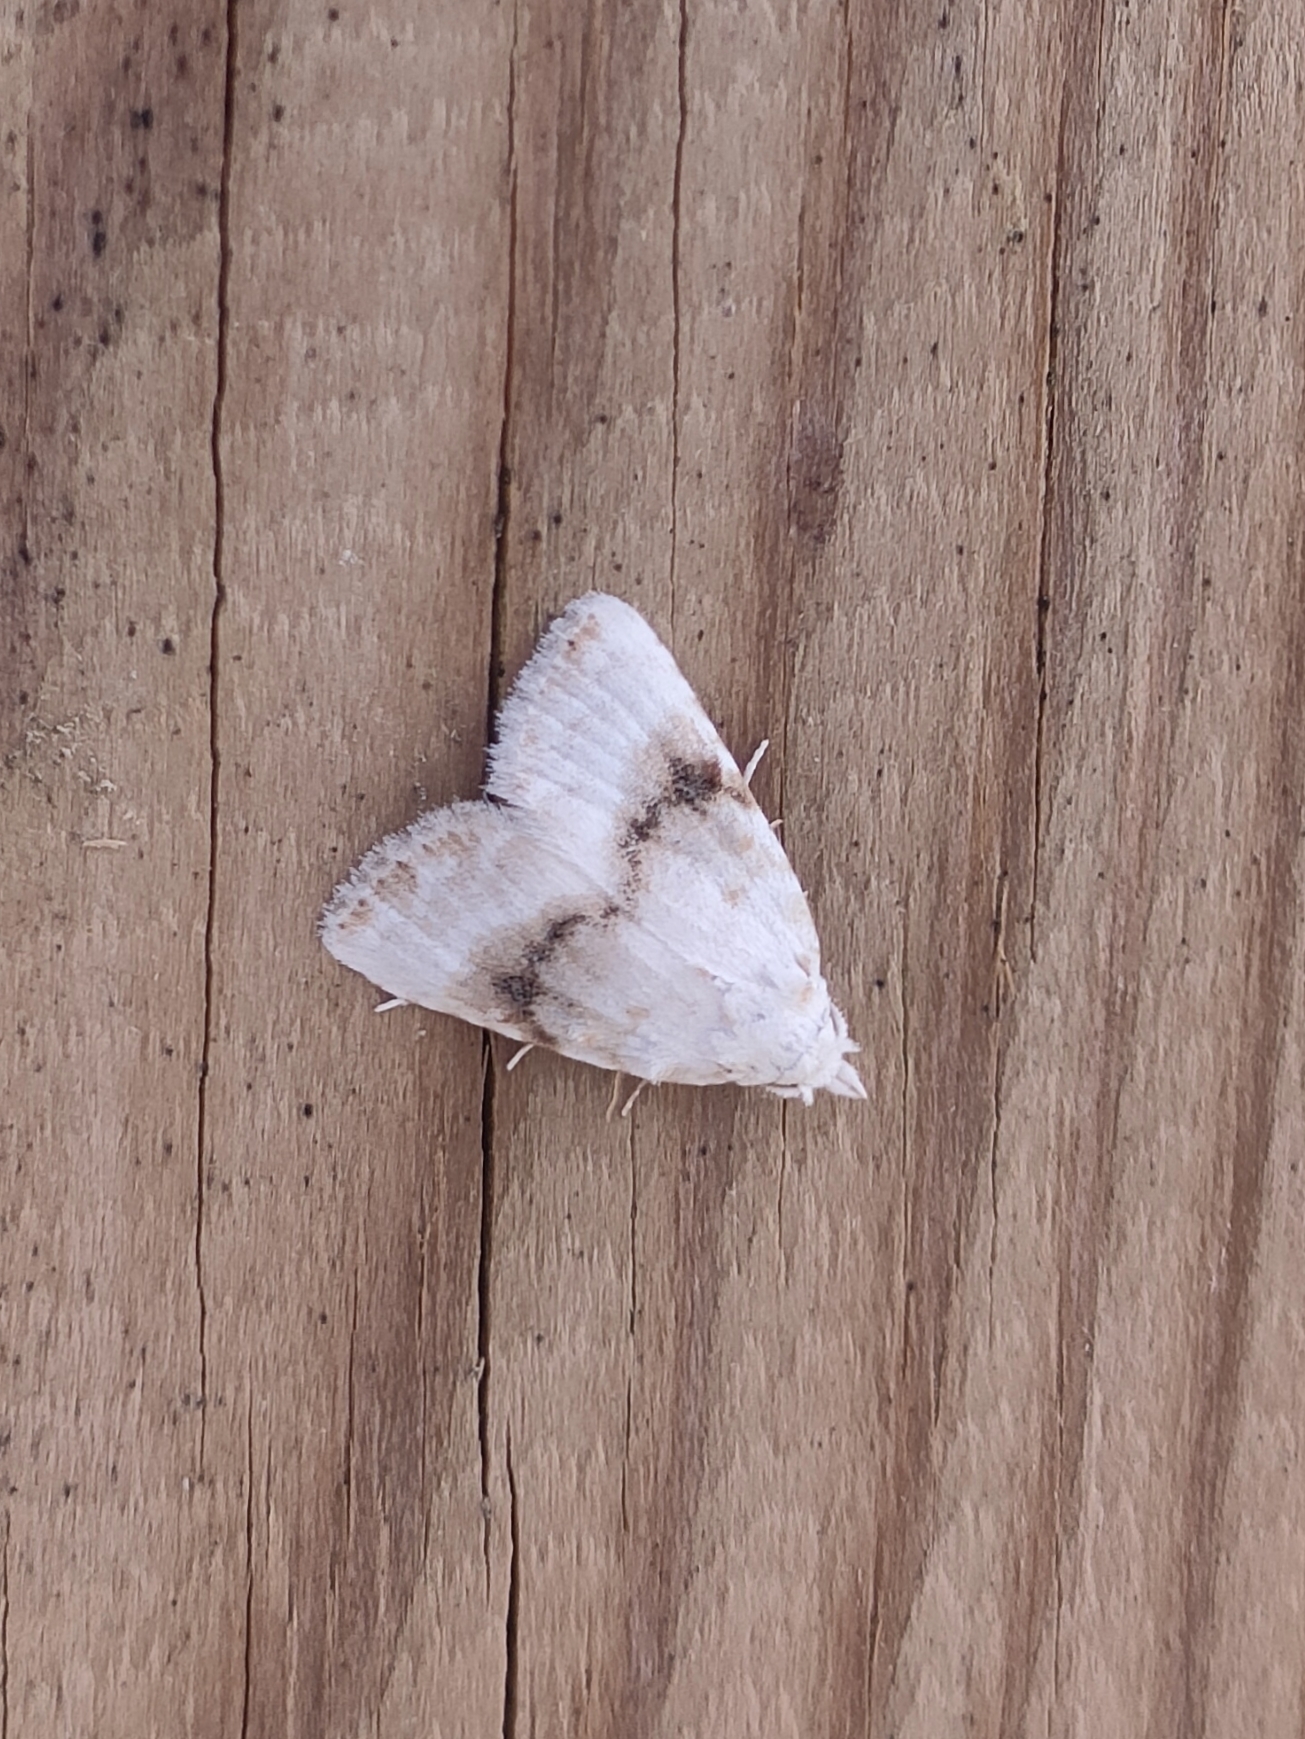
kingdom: Animalia
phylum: Arthropoda
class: Insecta
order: Lepidoptera
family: Nolidae
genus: Meganola
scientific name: Meganola albula
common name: Kent black arches
